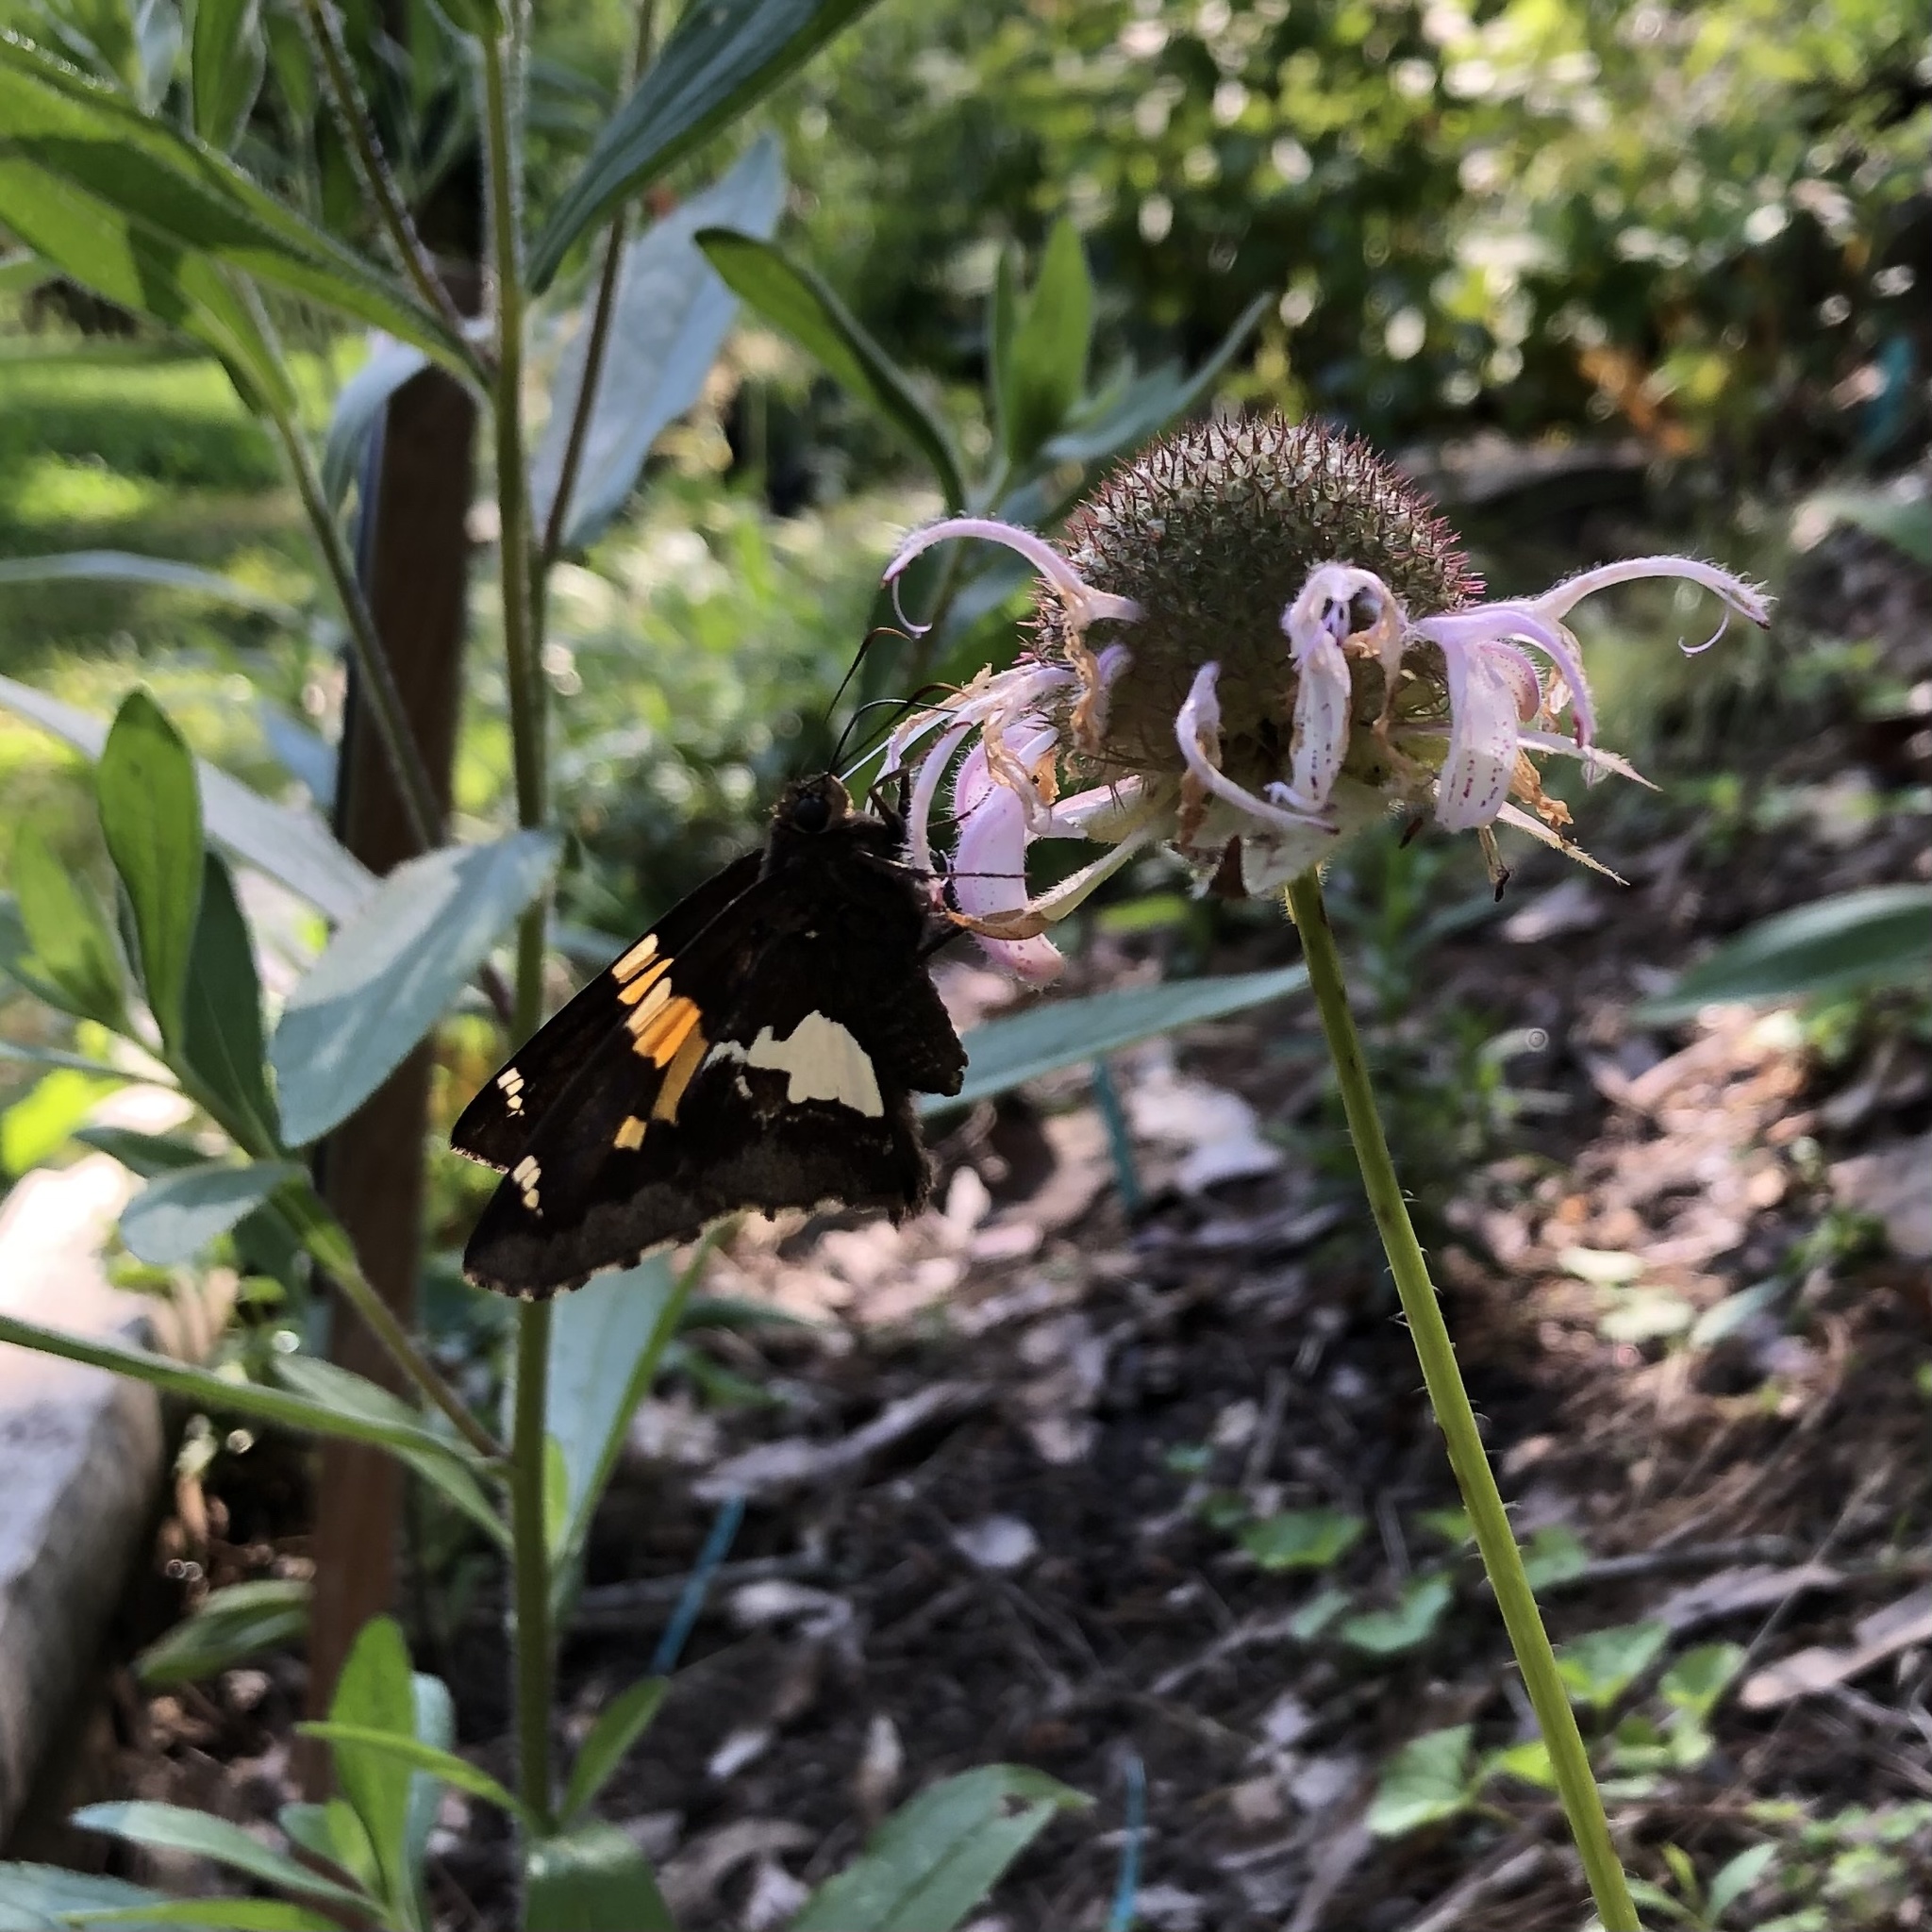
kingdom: Animalia
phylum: Arthropoda
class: Insecta
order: Lepidoptera
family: Hesperiidae
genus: Epargyreus
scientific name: Epargyreus clarus
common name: Silver-spotted skipper
